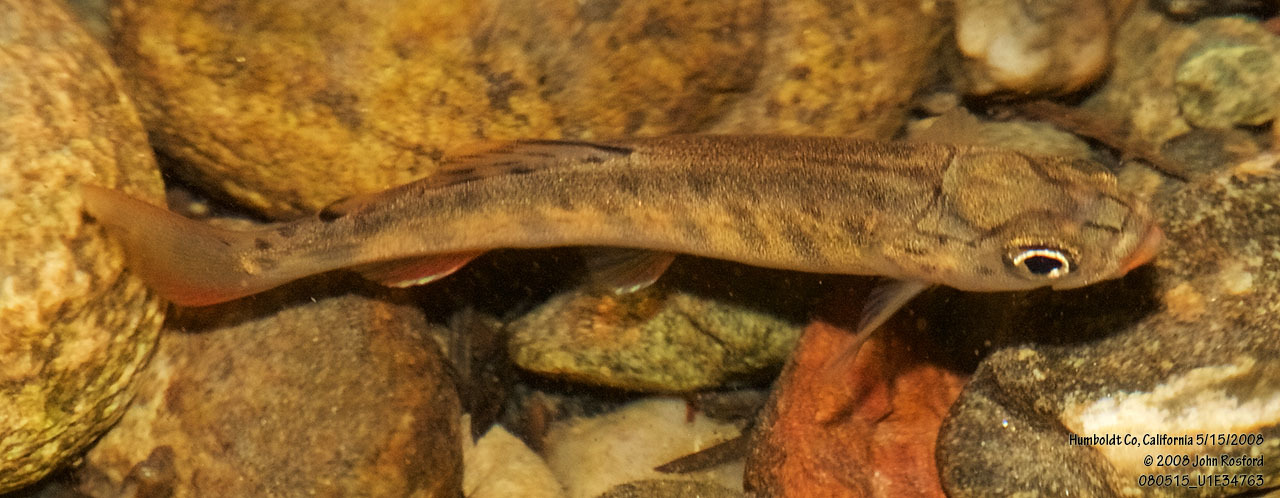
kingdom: Animalia
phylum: Chordata
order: Salmoniformes
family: Salmonidae
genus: Oncorhynchus
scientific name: Oncorhynchus kisutch
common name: Coho salmon
